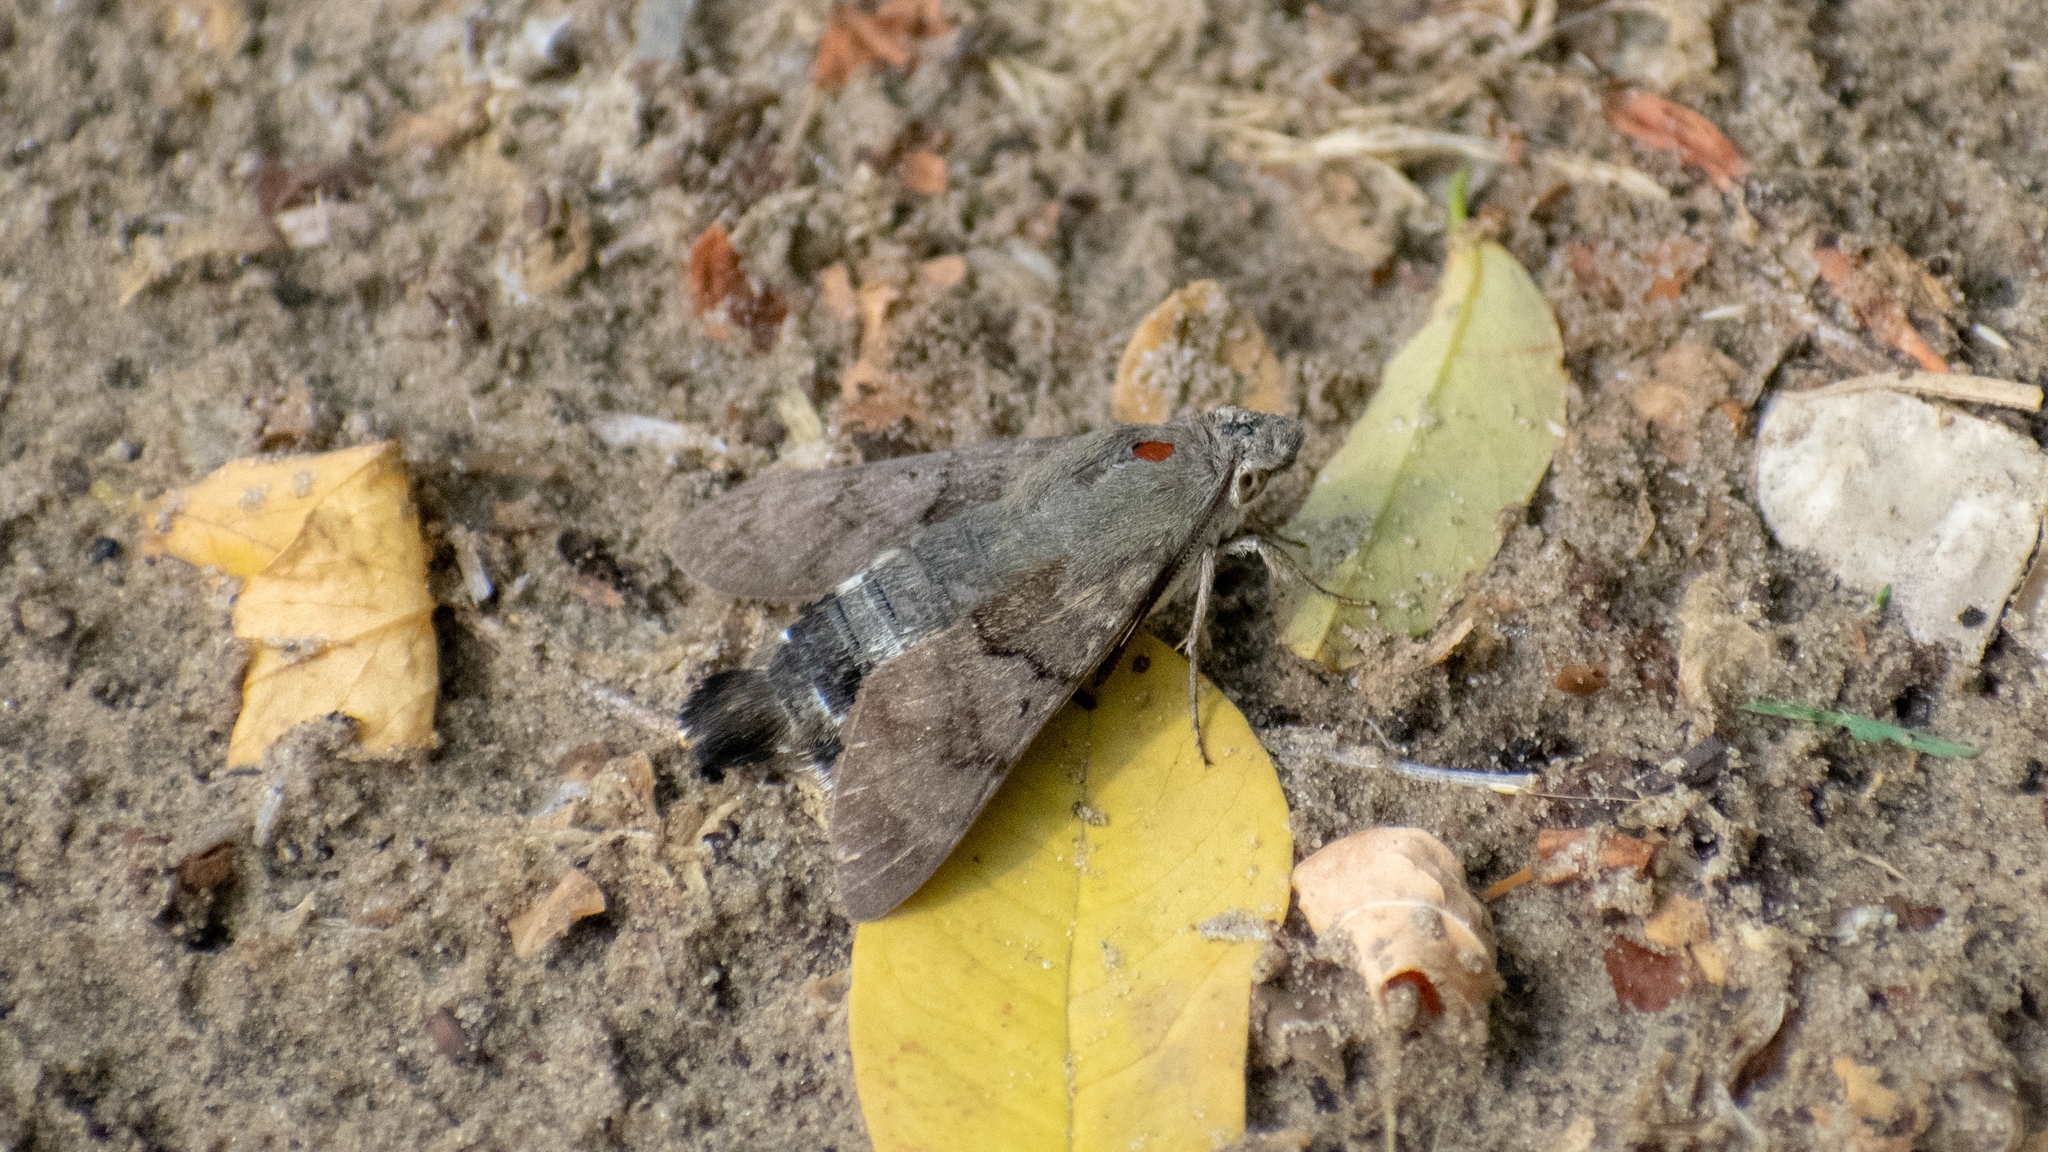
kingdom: Animalia
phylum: Arthropoda
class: Insecta
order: Lepidoptera
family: Sphingidae
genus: Macroglossum
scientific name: Macroglossum stellatarum
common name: Humming-bird hawk-moth
